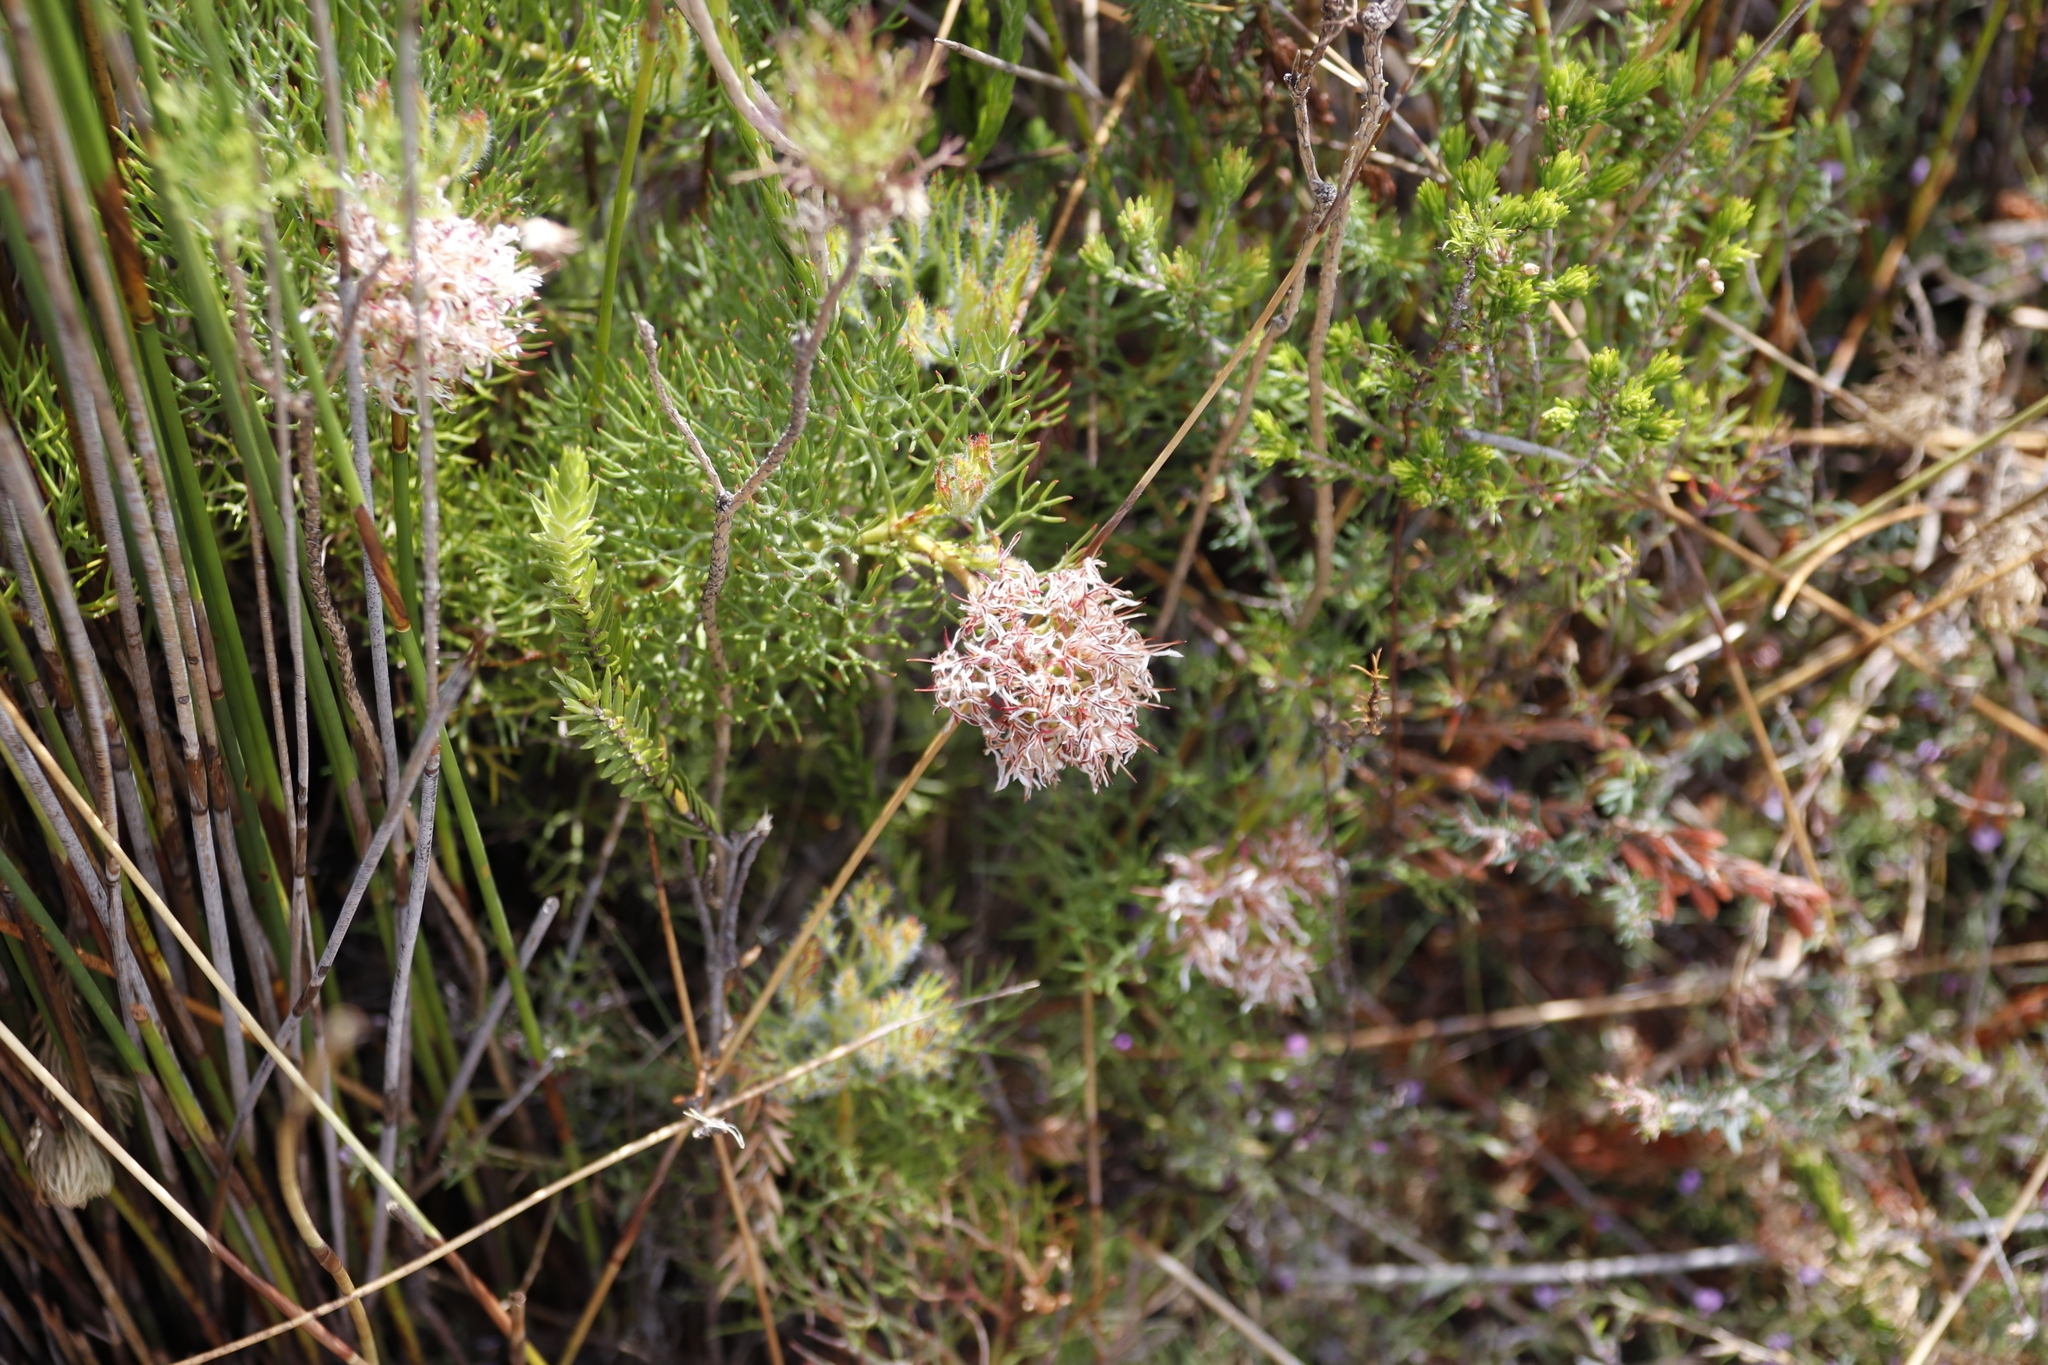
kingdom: Plantae
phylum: Tracheophyta
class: Magnoliopsida
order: Proteales
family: Proteaceae
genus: Serruria
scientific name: Serruria collina
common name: Lost spiderhead
